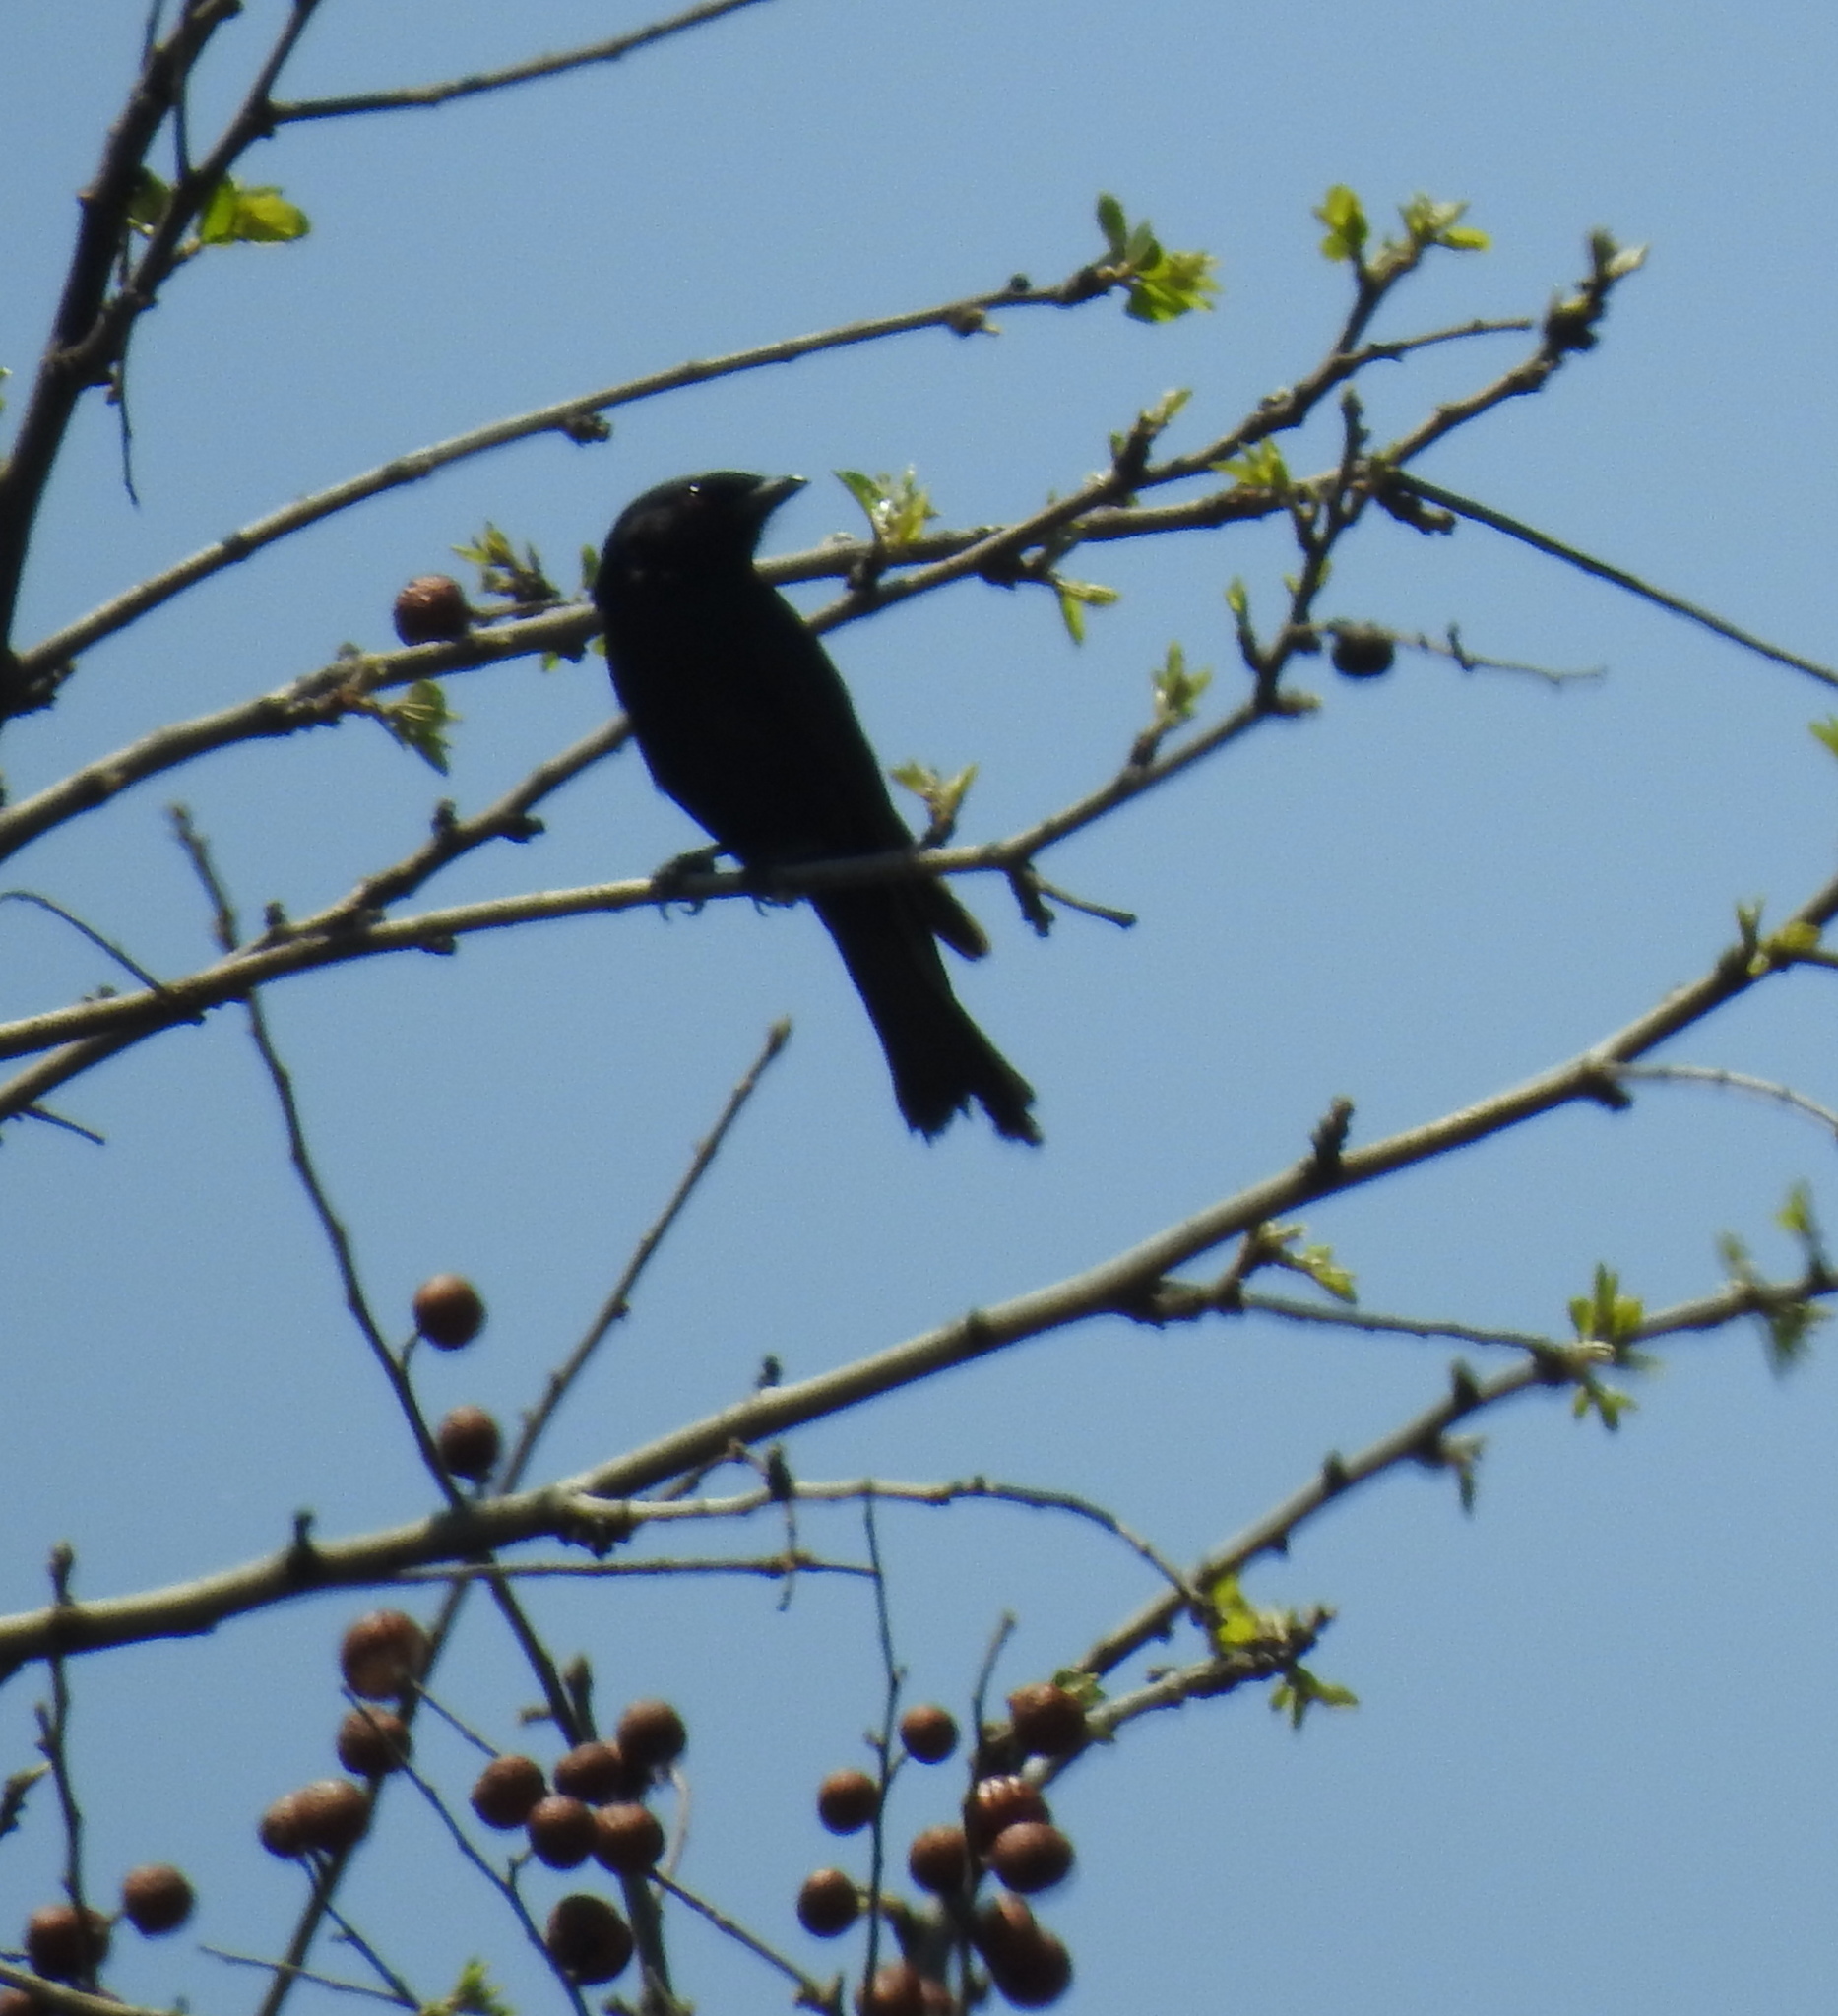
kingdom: Animalia
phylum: Chordata
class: Aves
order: Passeriformes
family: Dicruridae
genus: Dicrurus
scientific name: Dicrurus adsimilis
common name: Fork-tailed drongo
